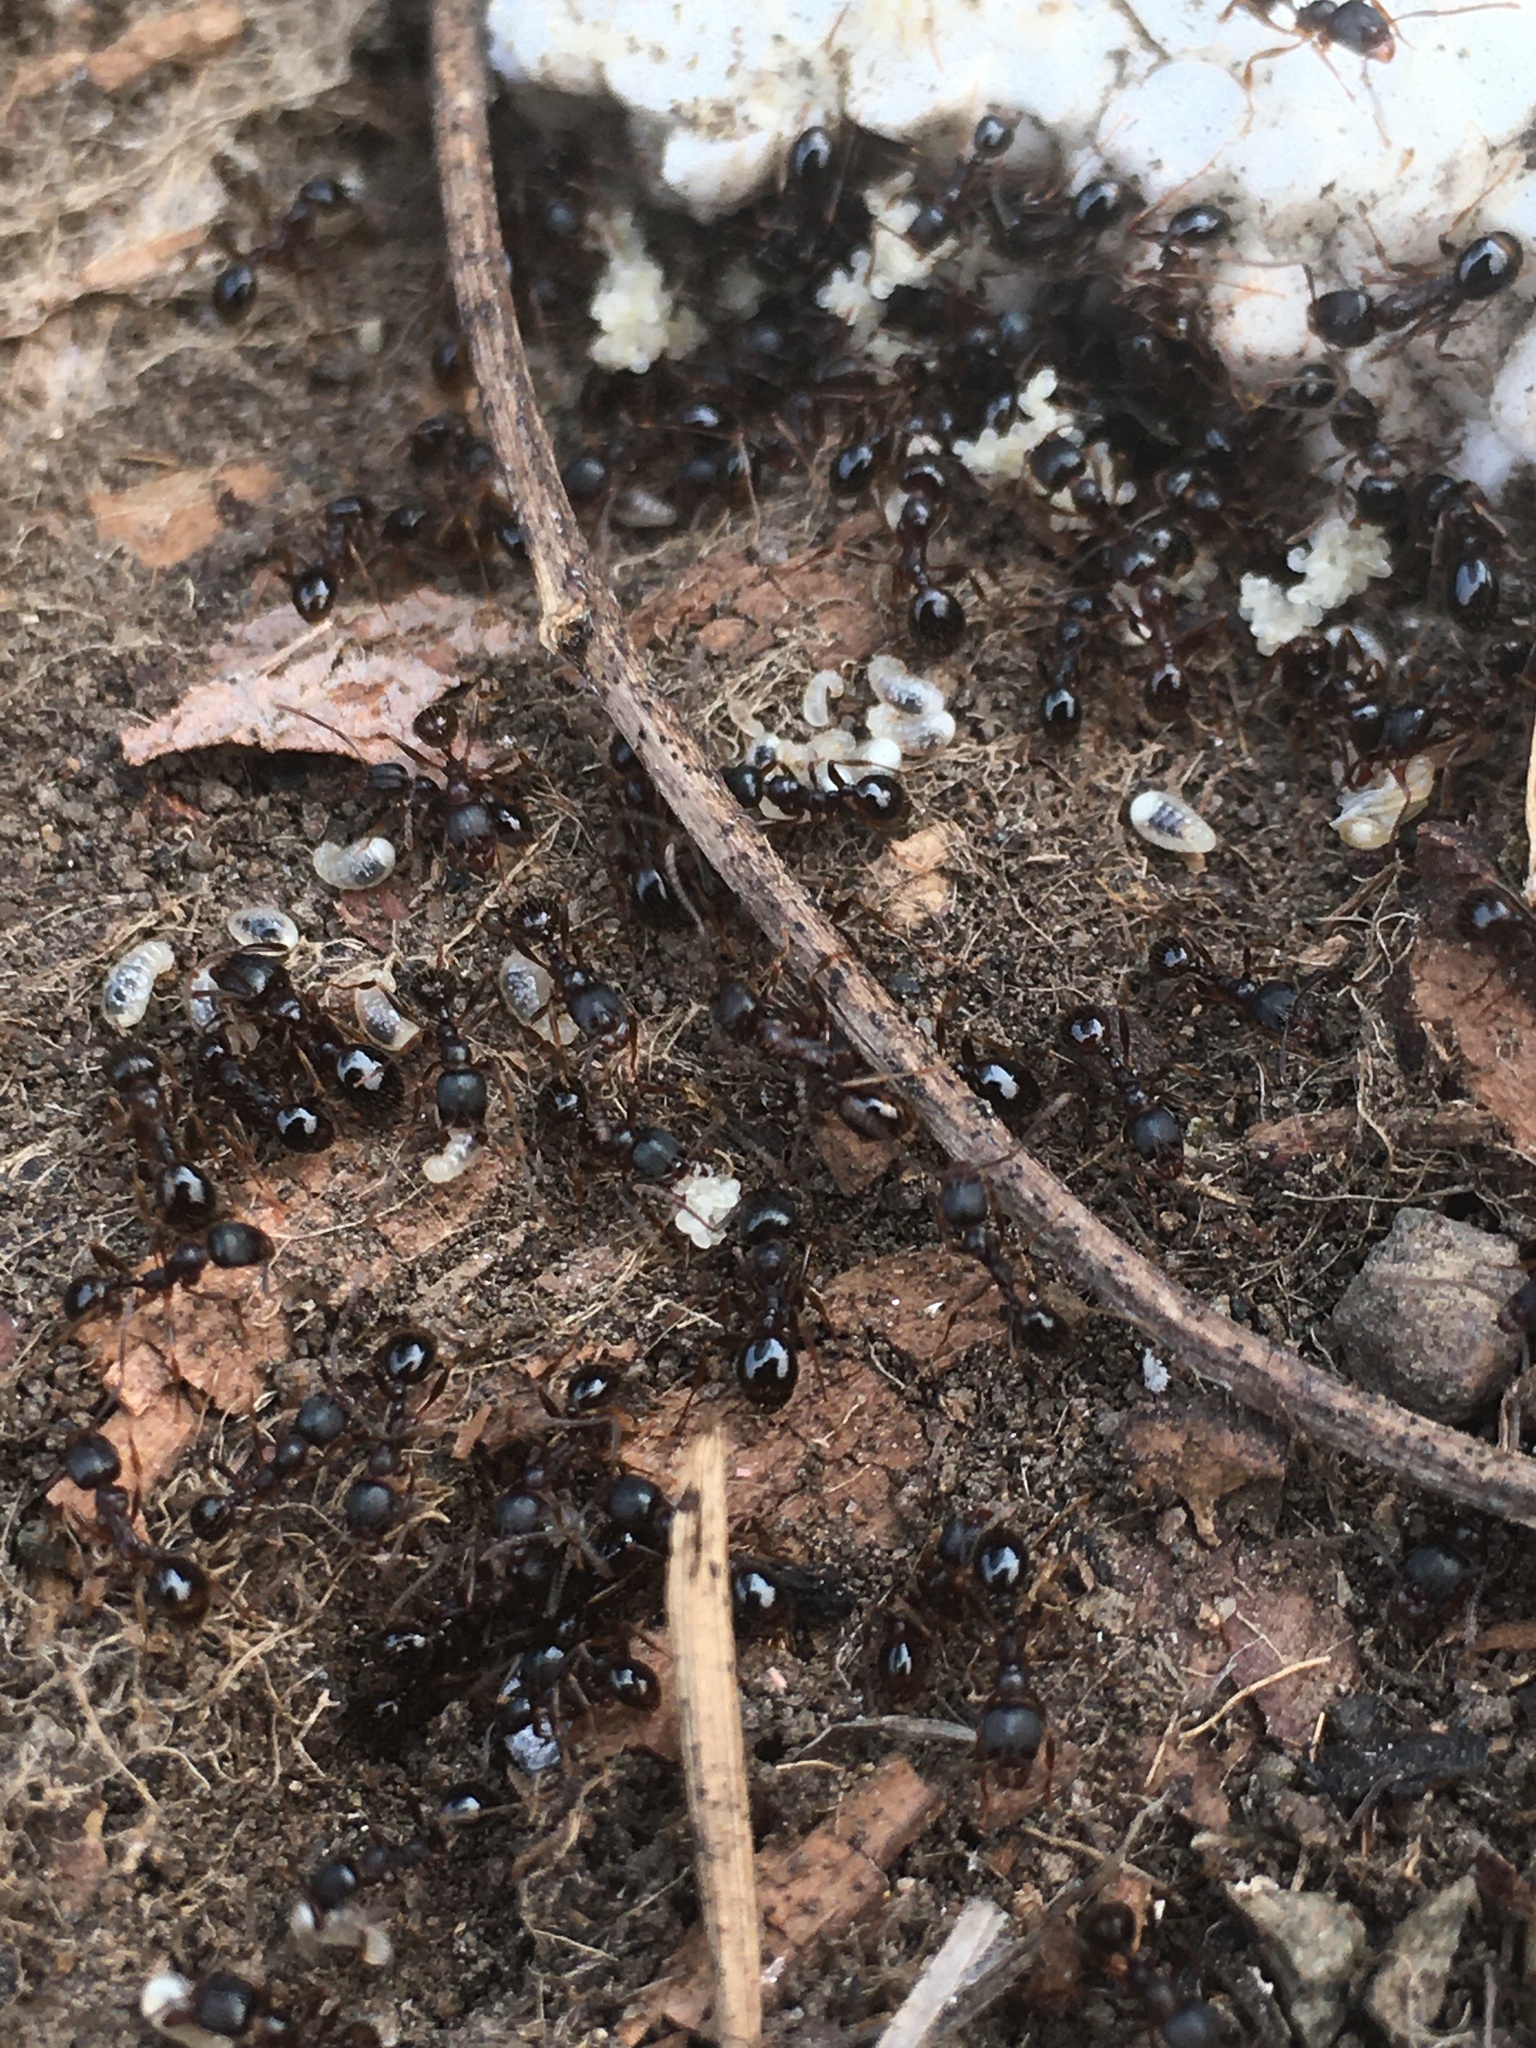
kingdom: Animalia
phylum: Arthropoda
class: Insecta
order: Hymenoptera
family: Formicidae
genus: Aphaenogaster
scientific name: Aphaenogaster occidentalis
